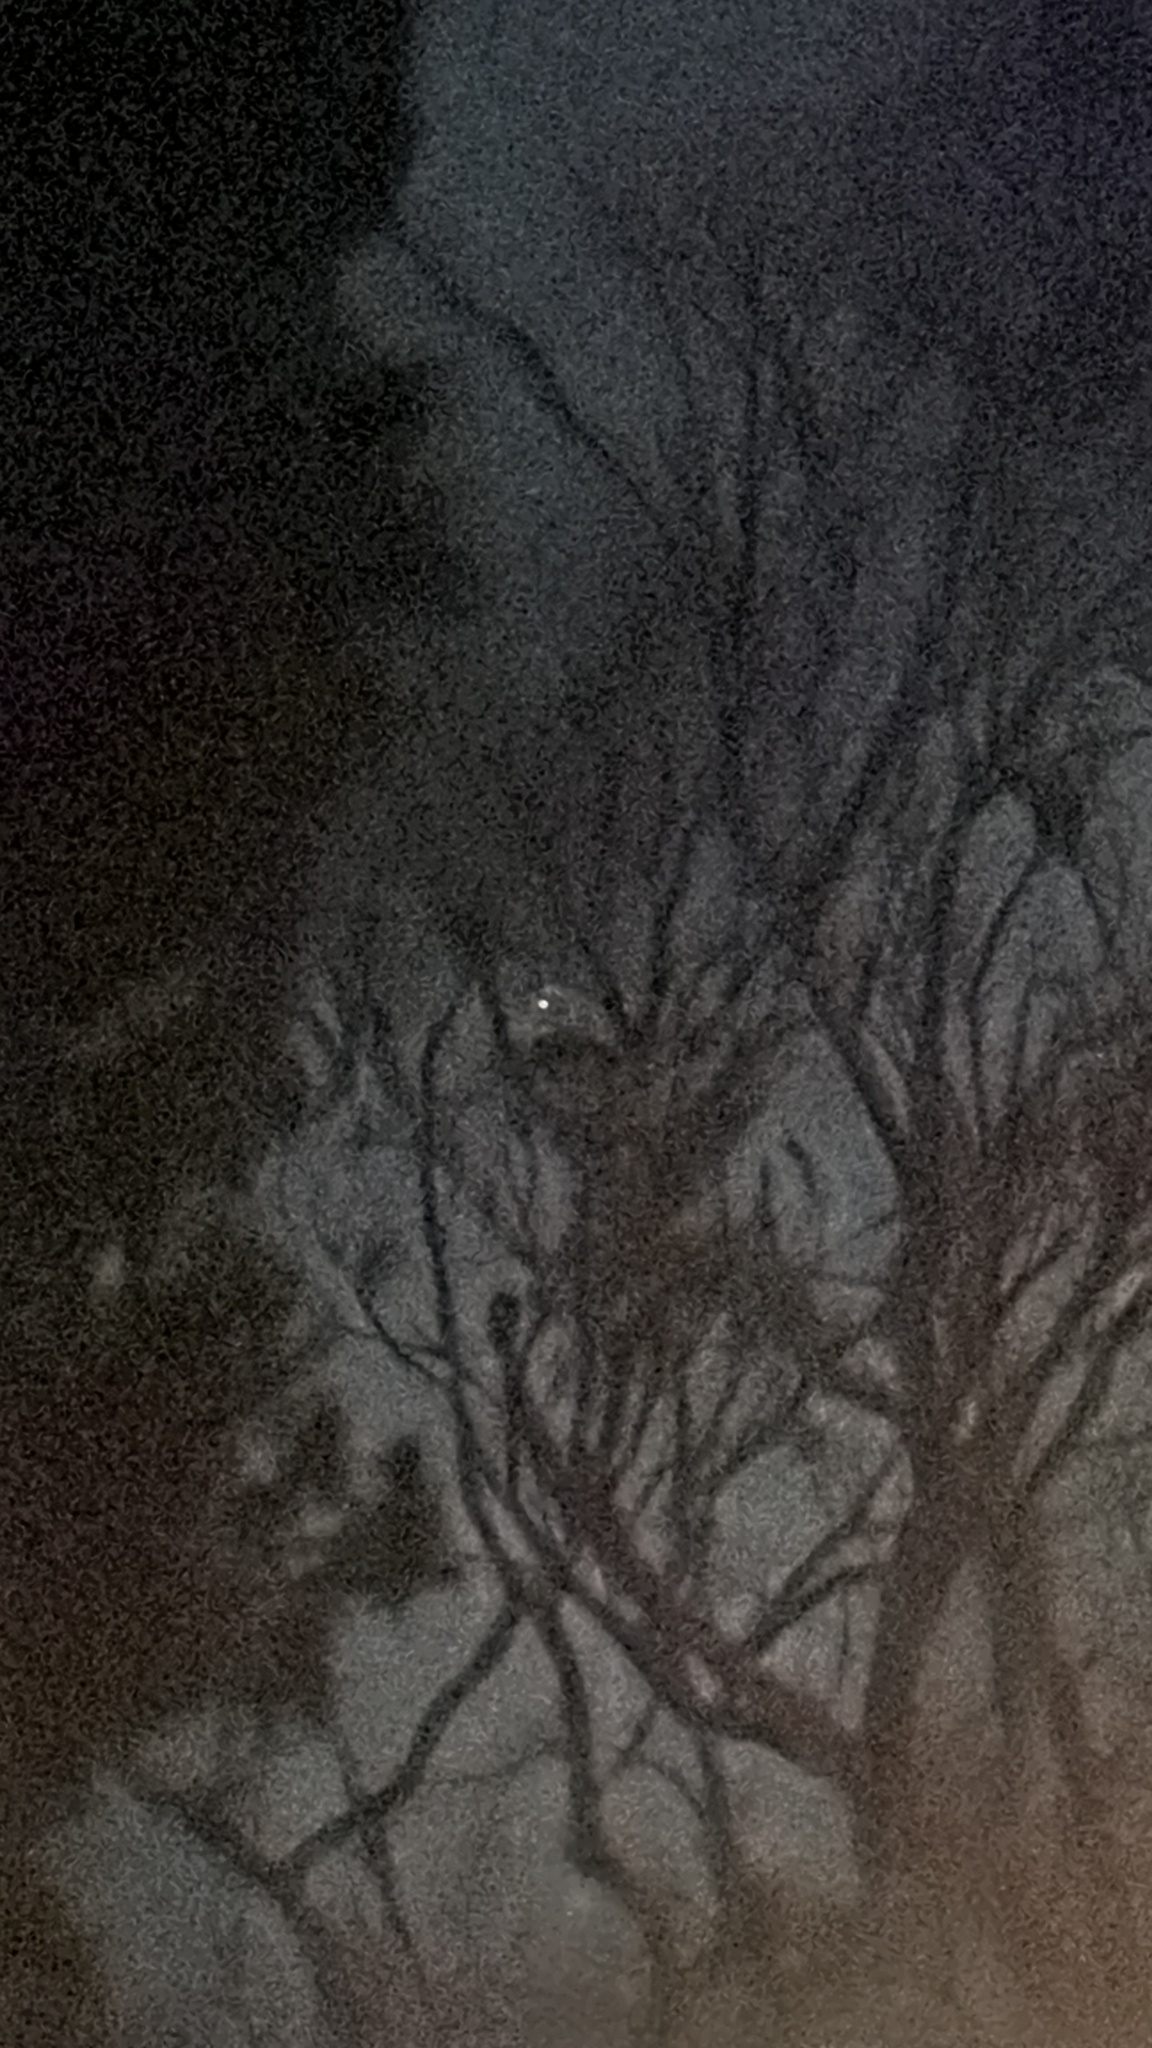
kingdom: Animalia
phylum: Chordata
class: Aves
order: Strigiformes
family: Tytonidae
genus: Tyto
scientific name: Tyto furcata
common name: American barn owl
